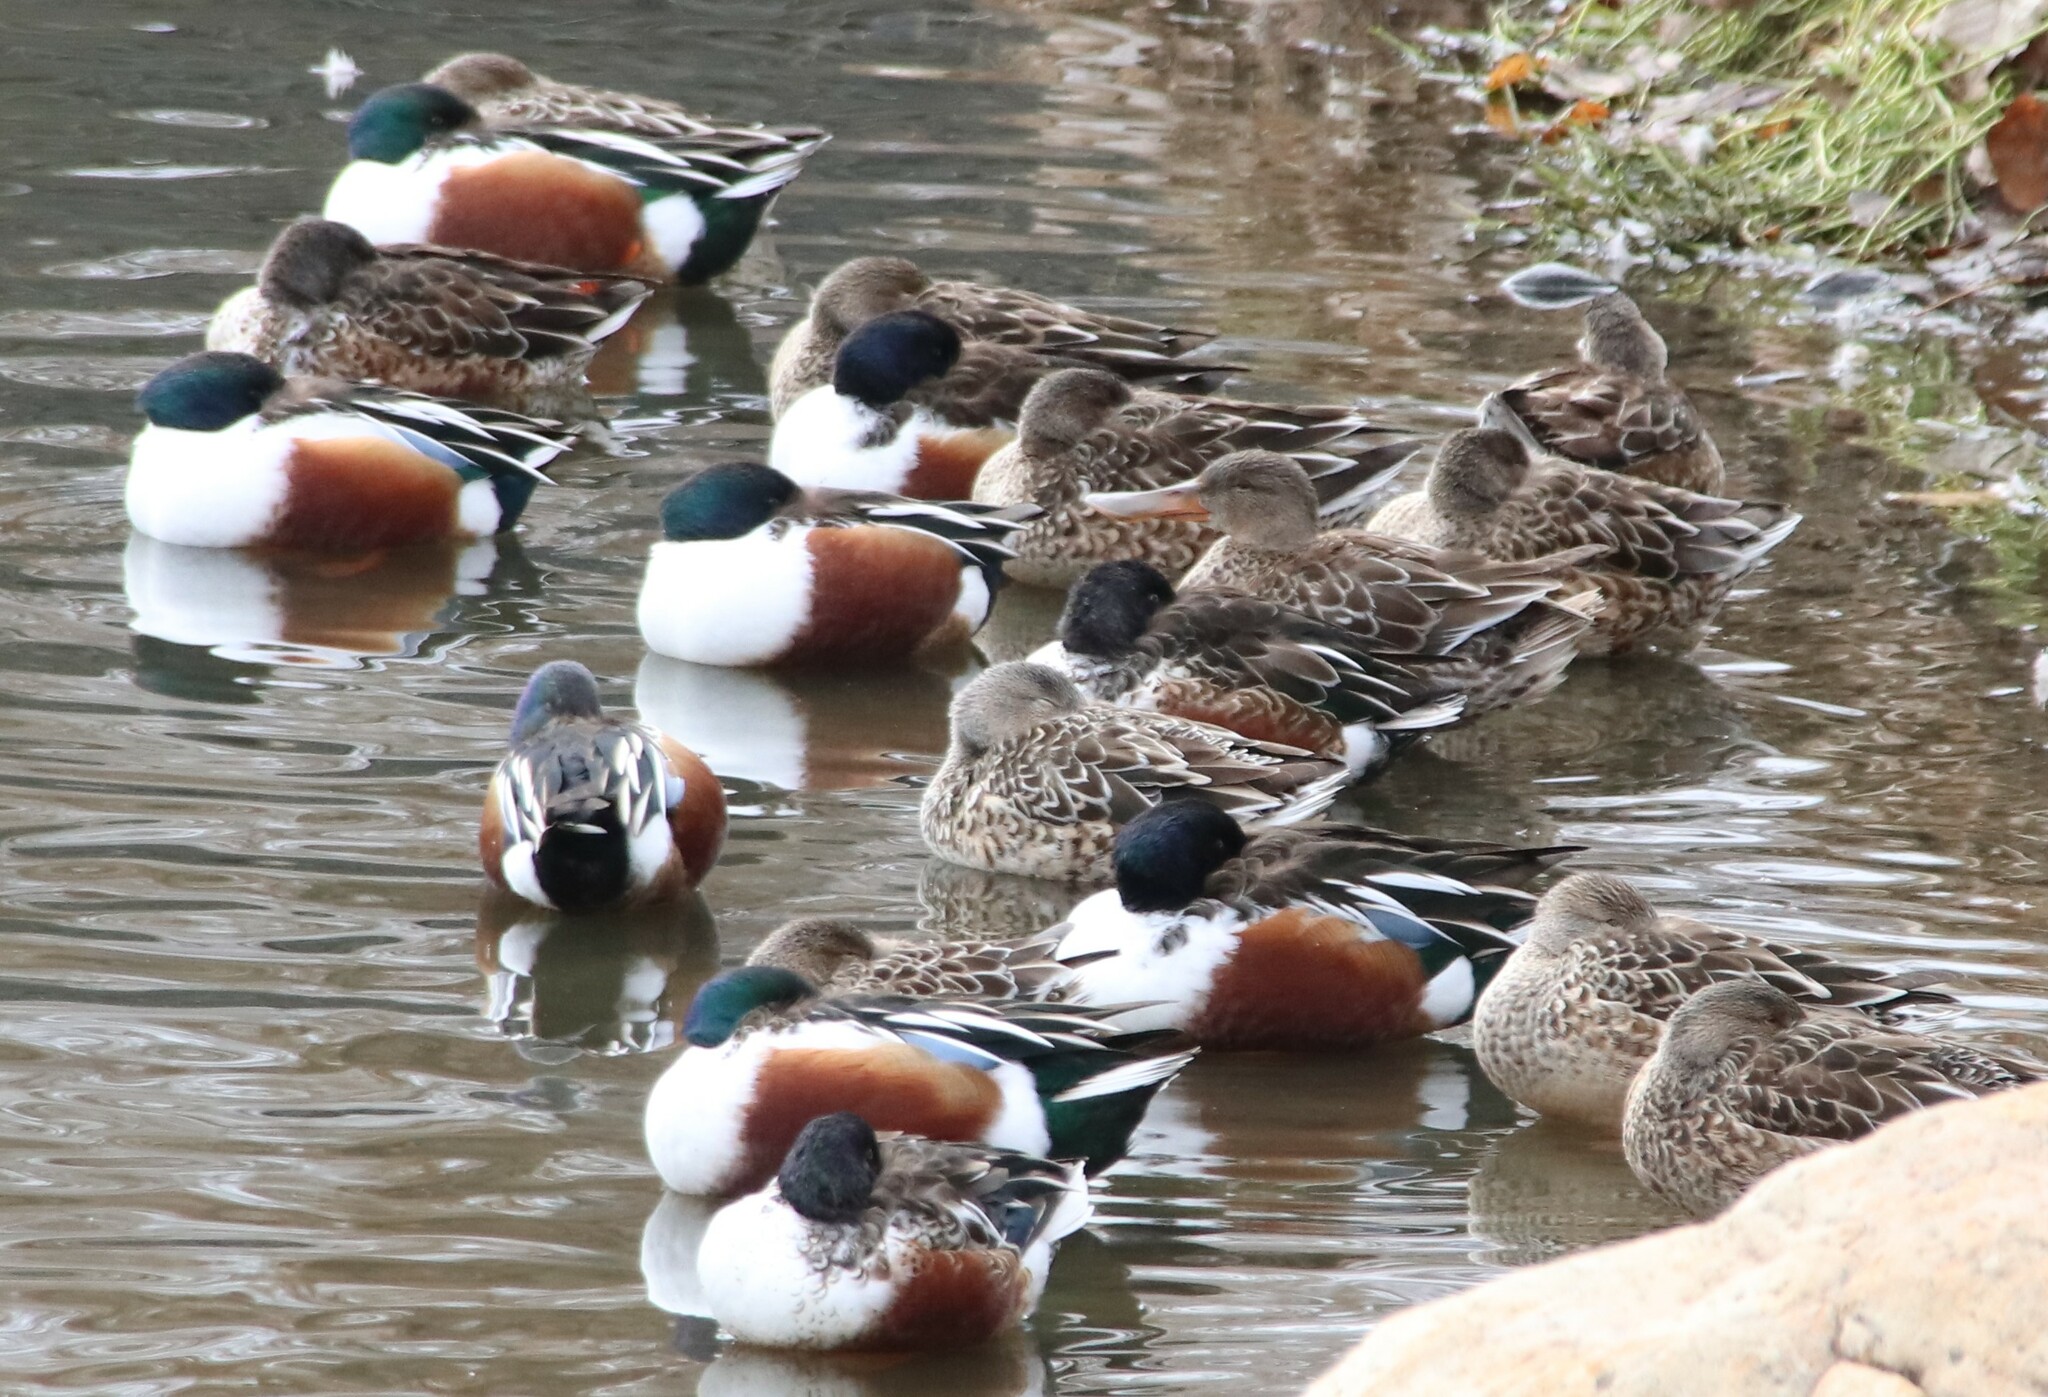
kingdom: Animalia
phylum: Chordata
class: Aves
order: Anseriformes
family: Anatidae
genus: Spatula
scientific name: Spatula clypeata
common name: Northern shoveler
